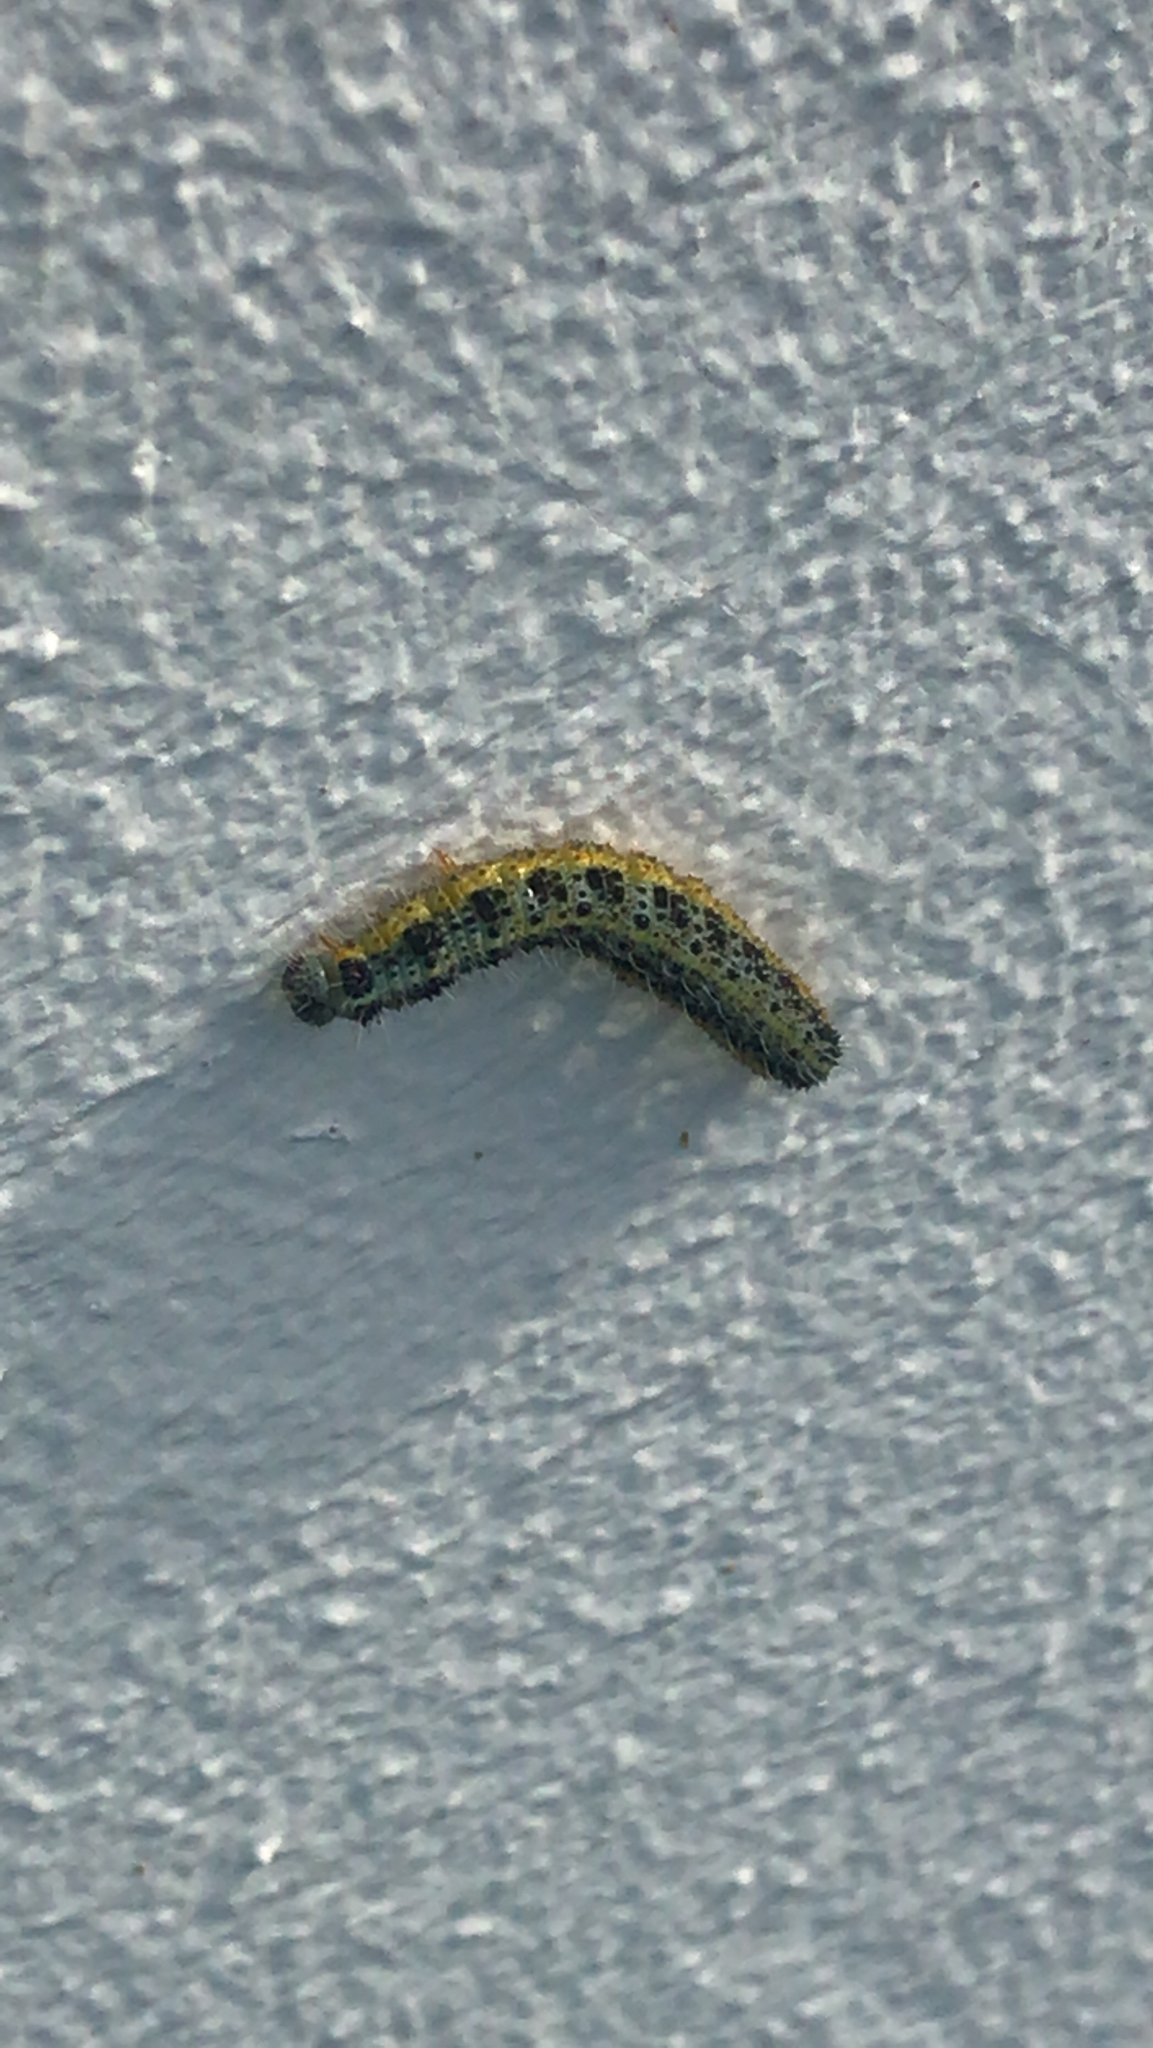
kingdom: Animalia
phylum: Arthropoda
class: Insecta
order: Lepidoptera
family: Pieridae
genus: Pieris
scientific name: Pieris brassicae
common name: Large white
